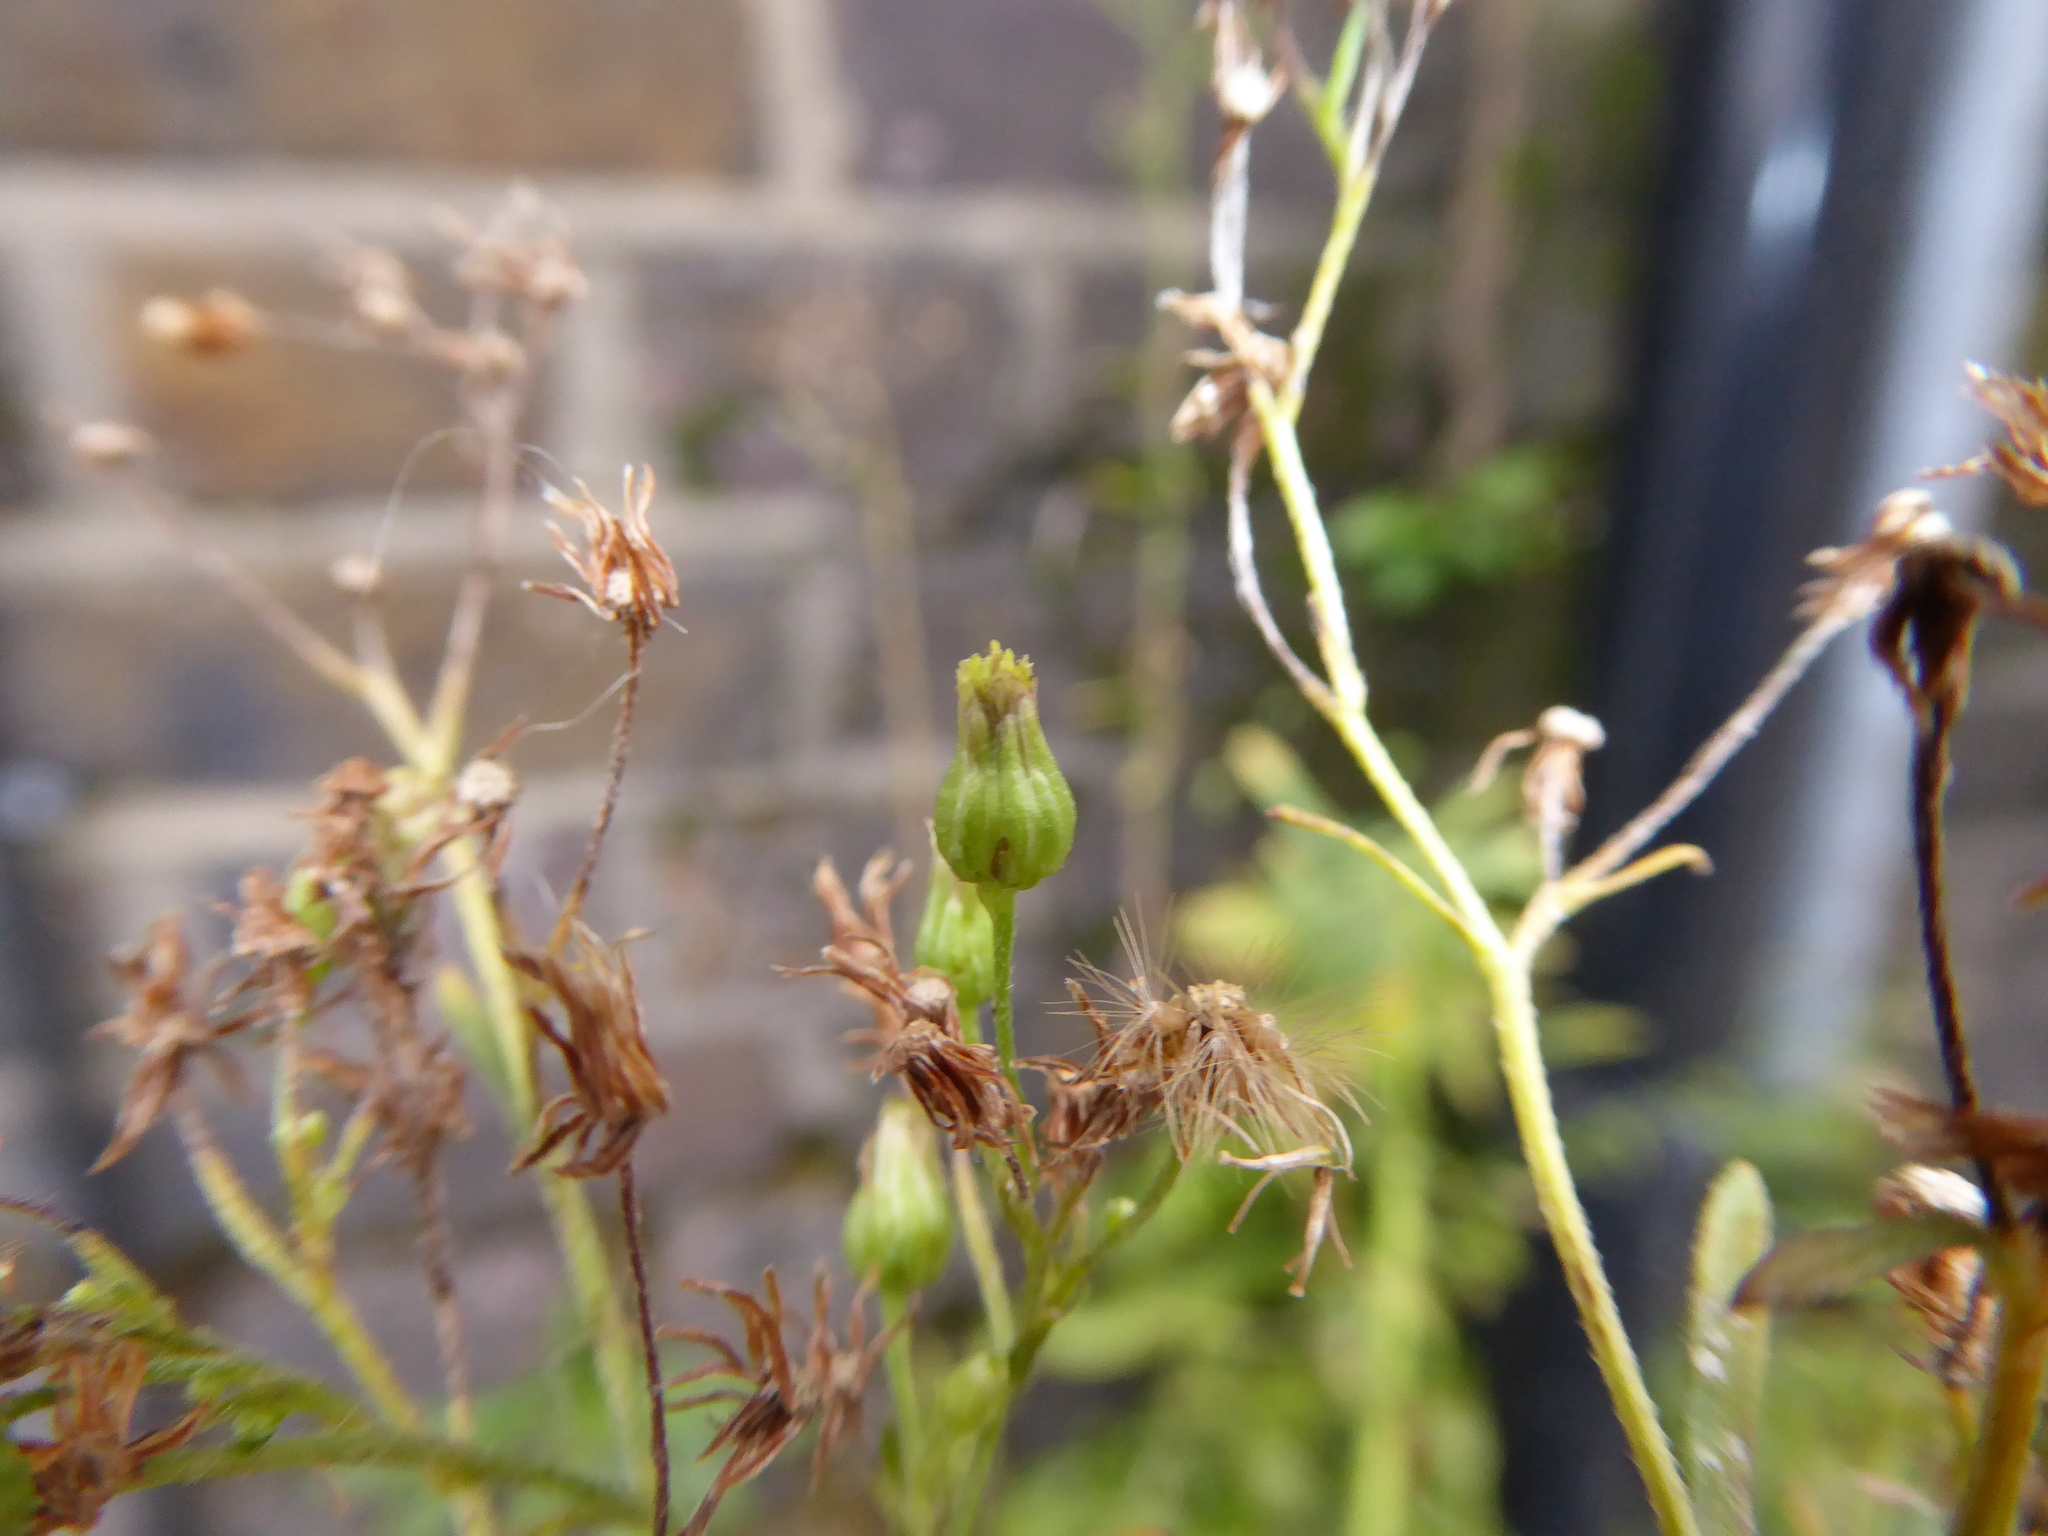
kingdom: Plantae
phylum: Tracheophyta
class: Magnoliopsida
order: Asterales
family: Asteraceae
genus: Erigeron
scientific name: Erigeron floribundus
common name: Bilbao fleabane
